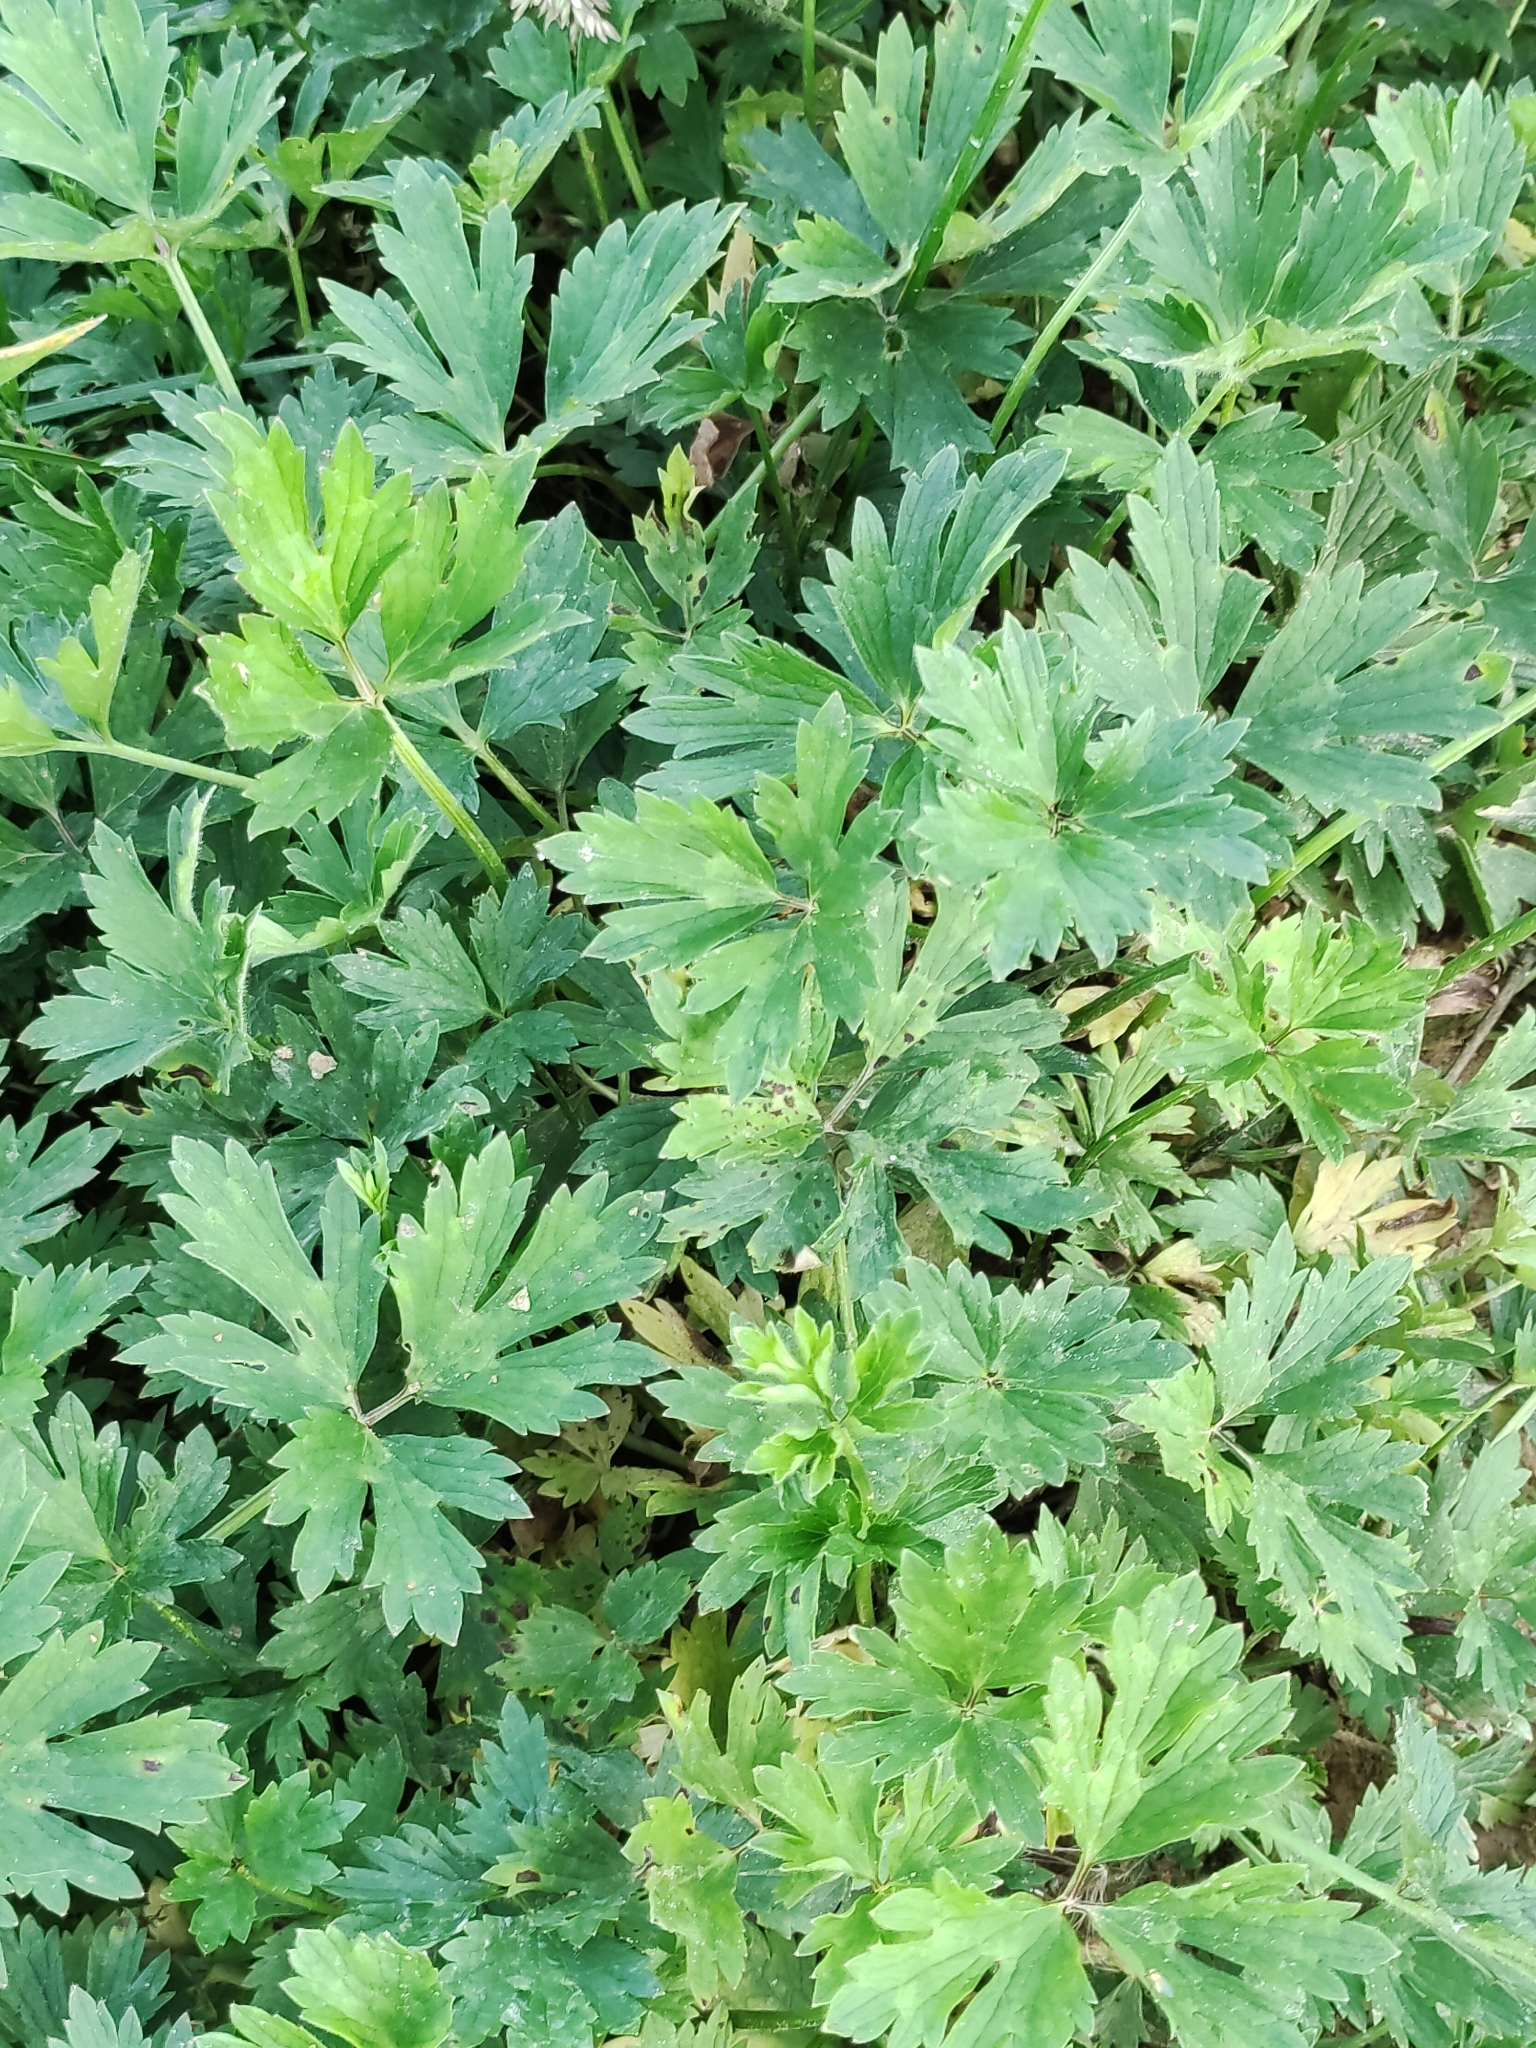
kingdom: Plantae
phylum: Tracheophyta
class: Magnoliopsida
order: Ranunculales
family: Ranunculaceae
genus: Ranunculus
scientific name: Ranunculus repens
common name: Creeping buttercup
